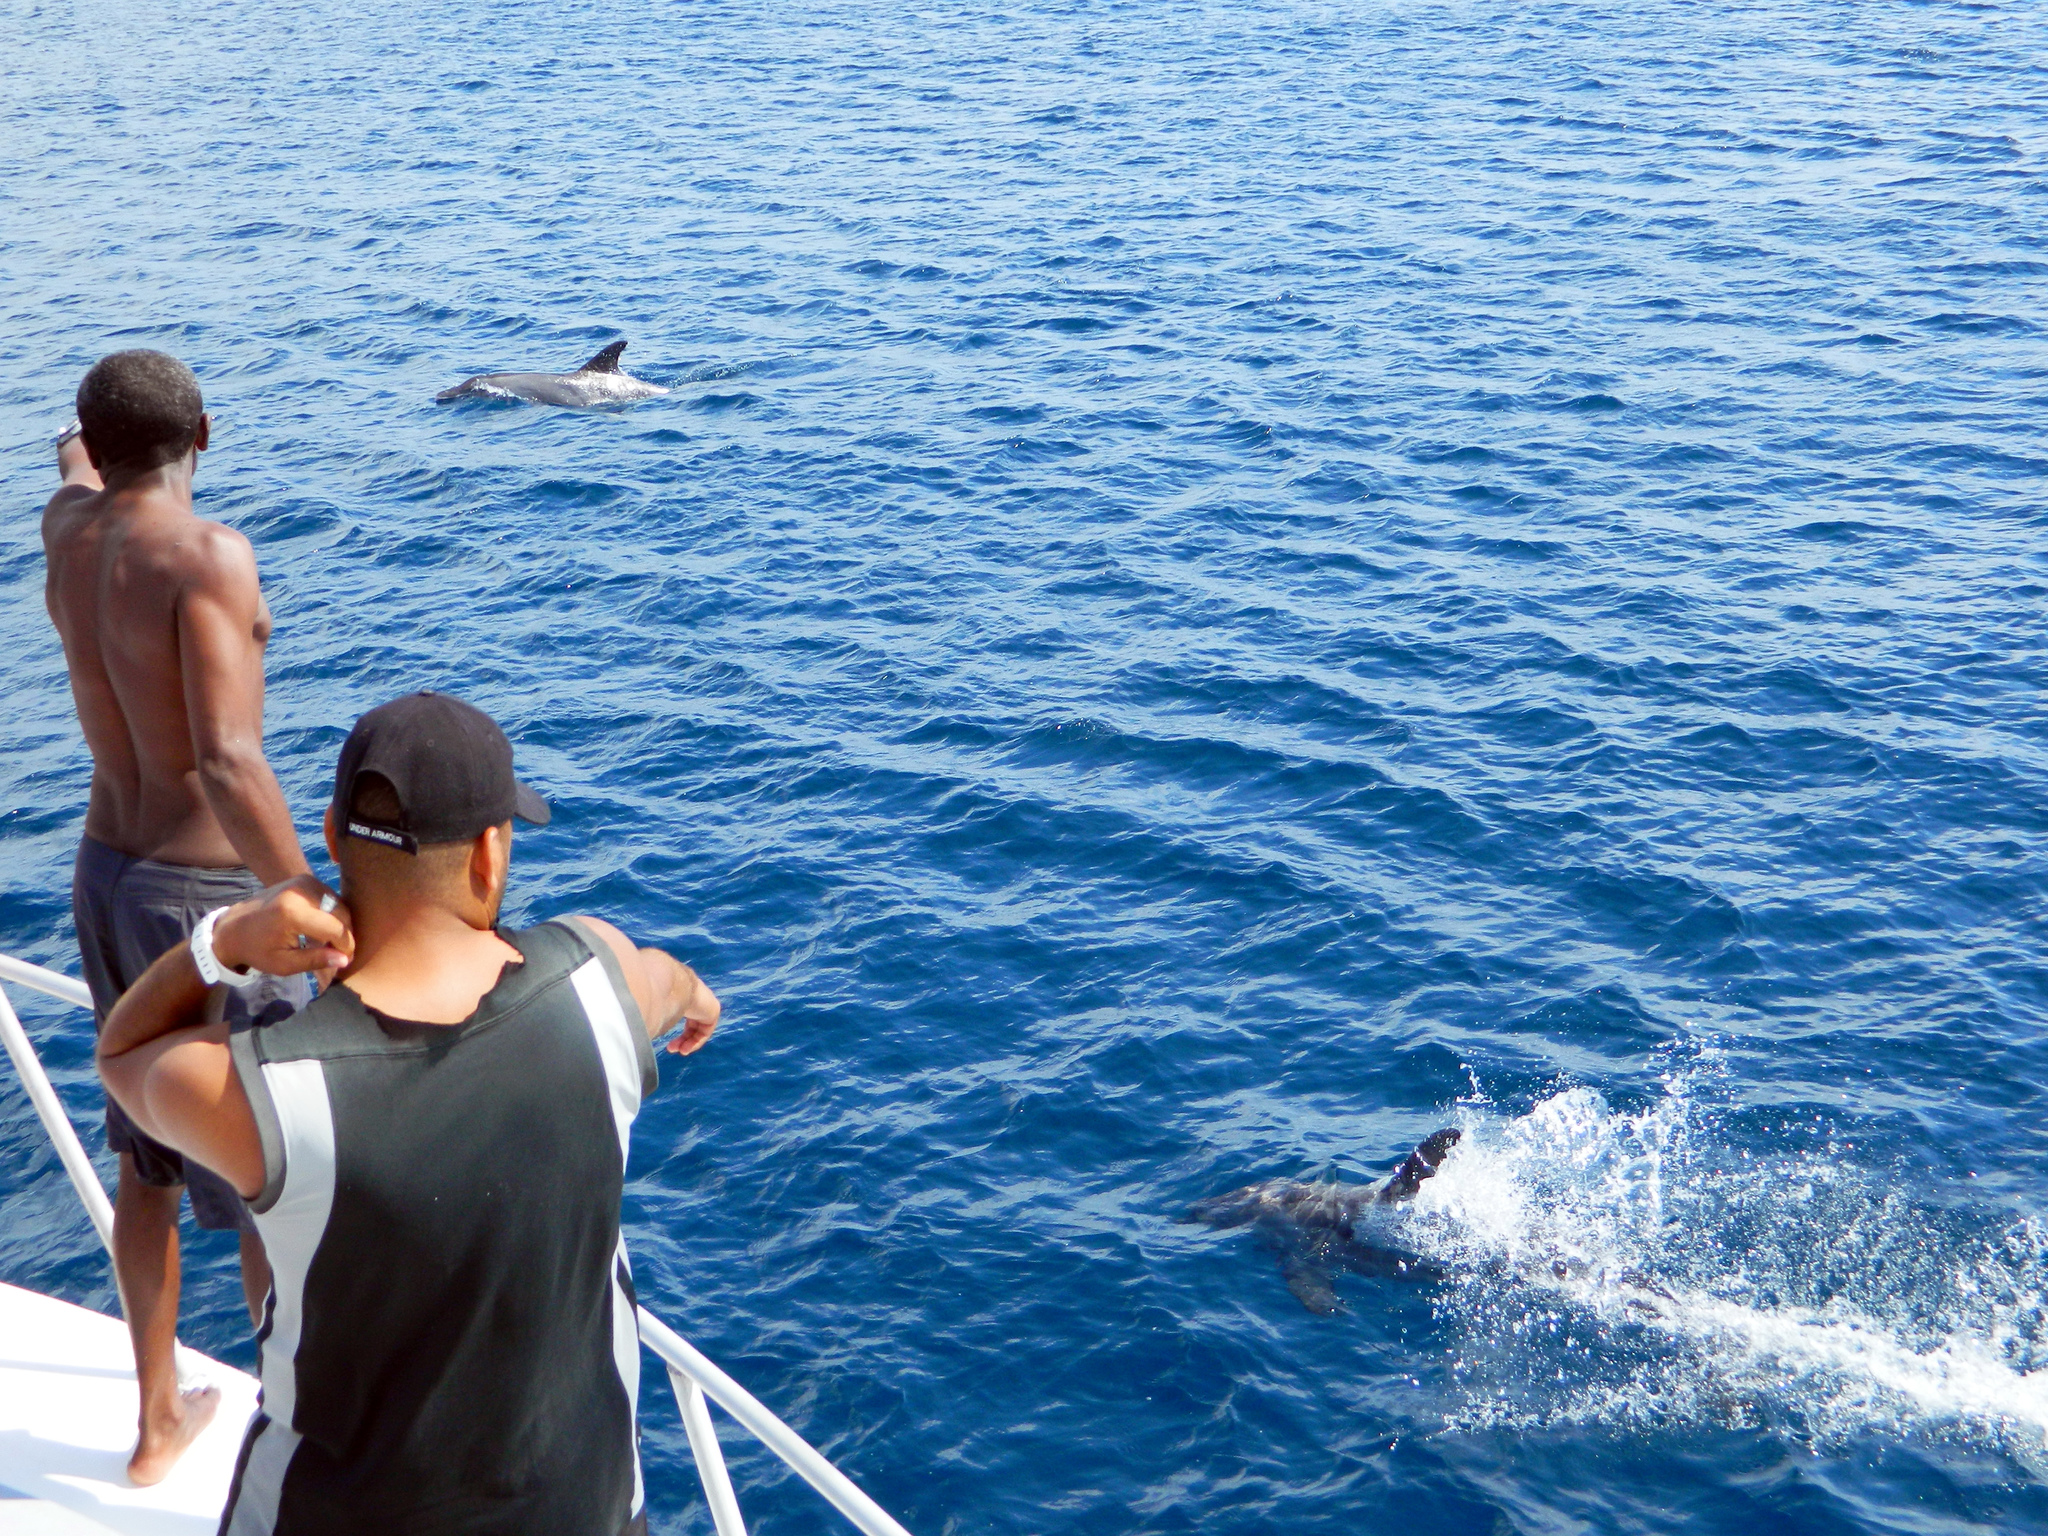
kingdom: Animalia
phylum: Chordata
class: Mammalia
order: Cetacea
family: Delphinidae
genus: Tursiops
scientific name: Tursiops truncatus
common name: Bottlenose dolphin
